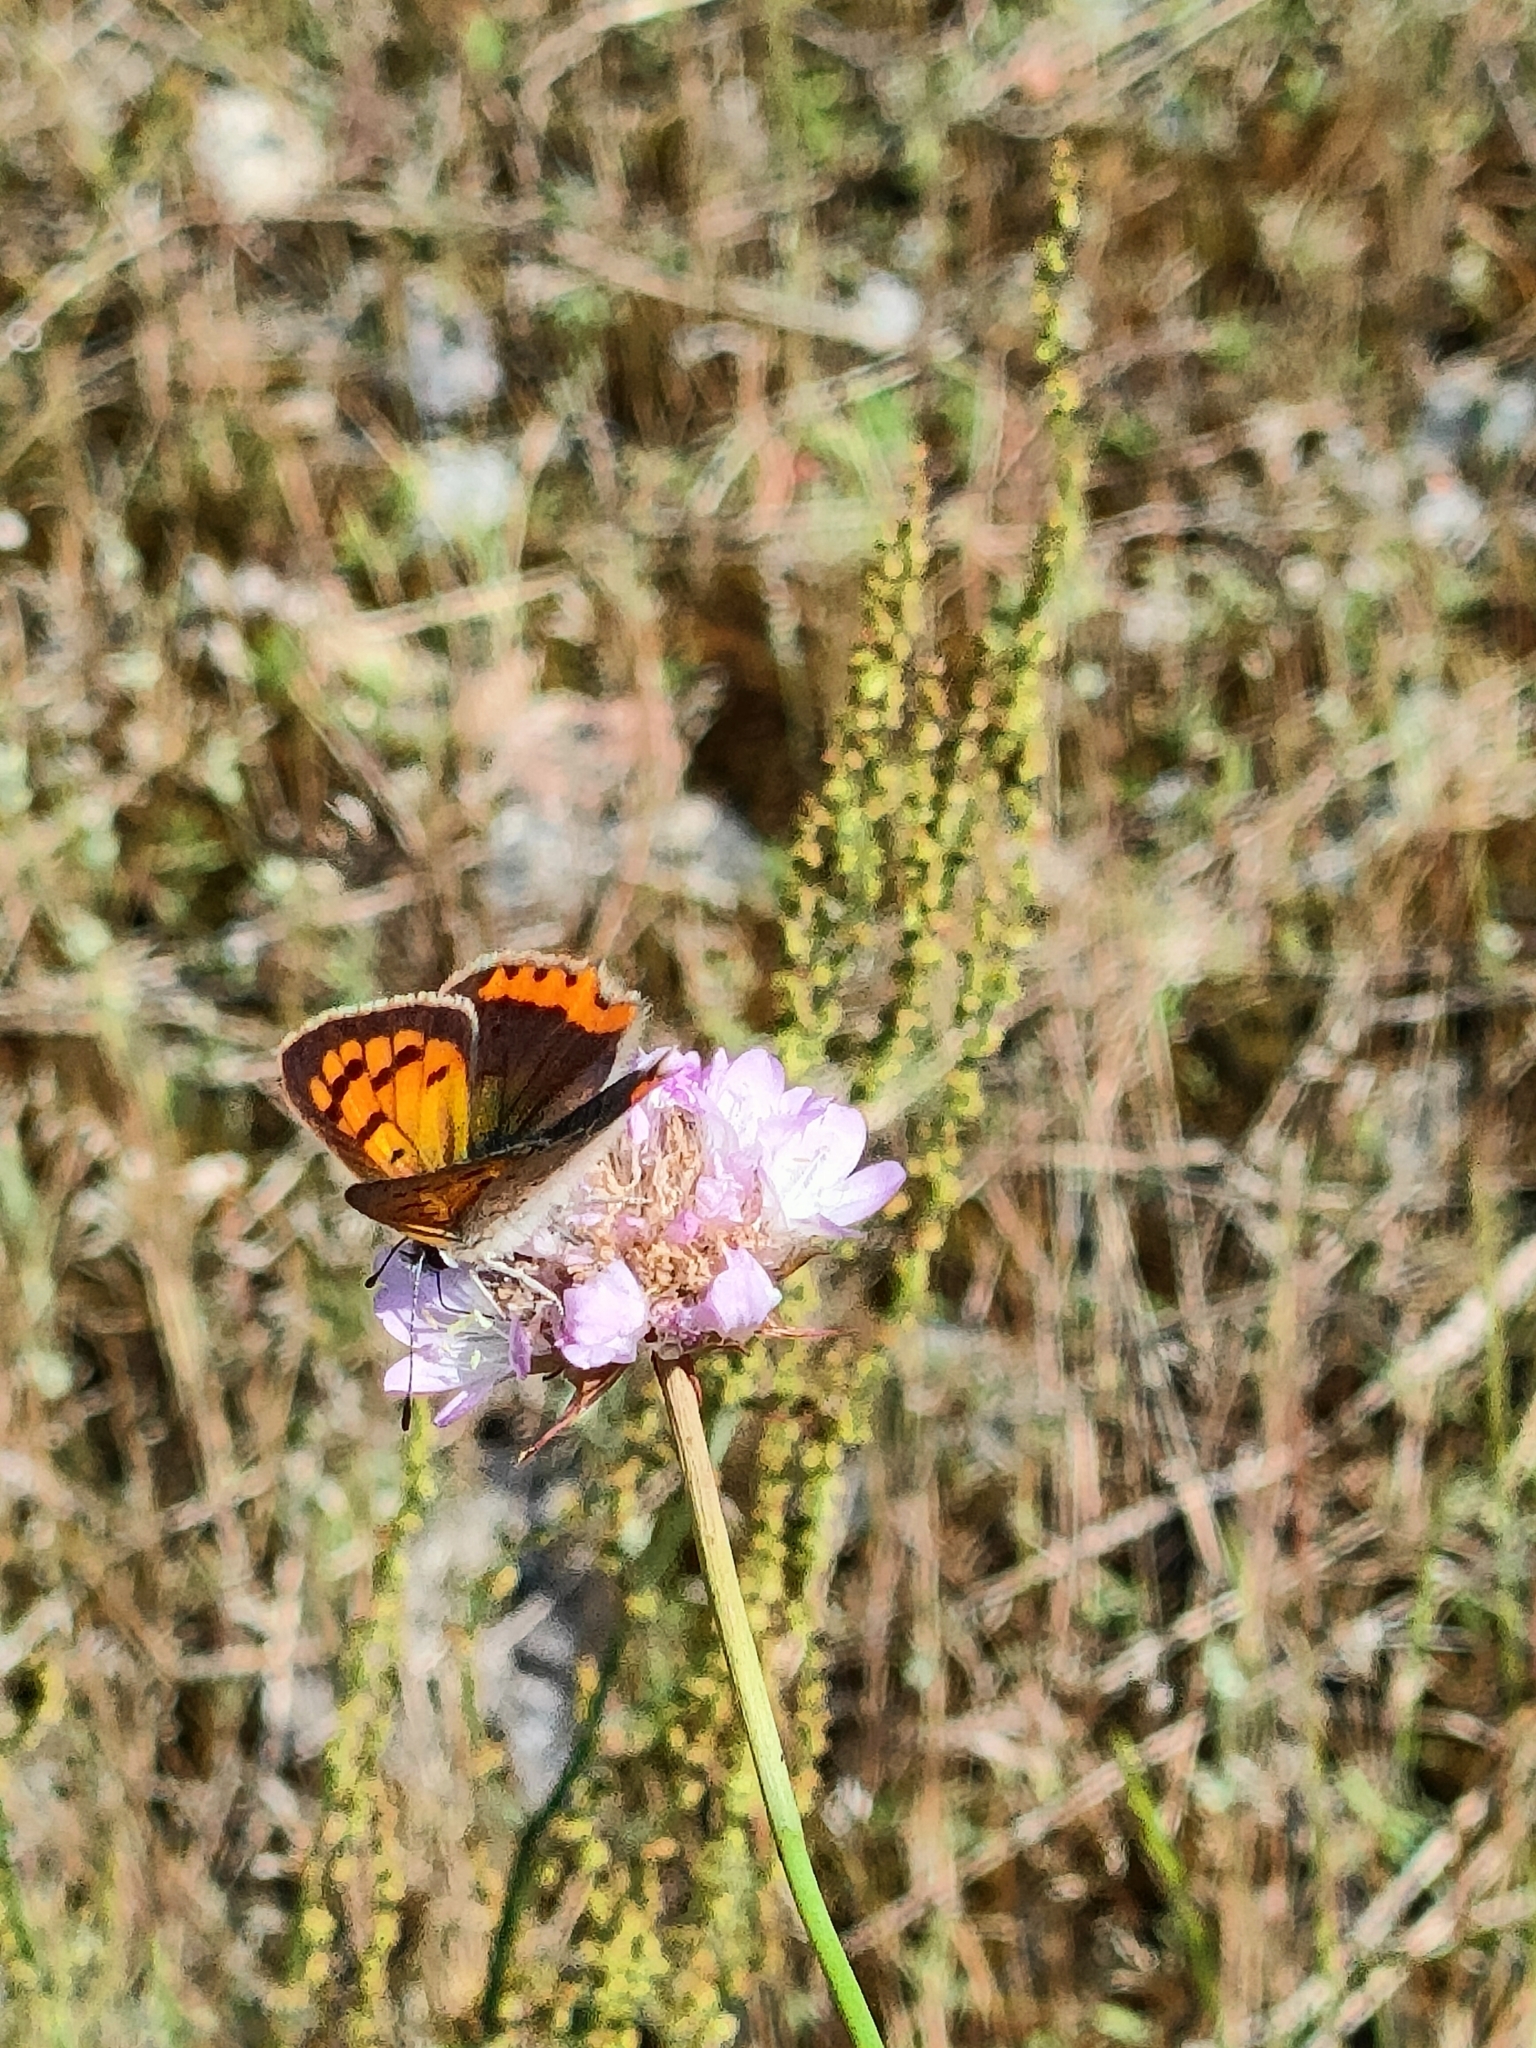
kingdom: Animalia
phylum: Arthropoda
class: Insecta
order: Lepidoptera
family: Lycaenidae
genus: Lycaena
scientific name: Lycaena phlaeas
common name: Small copper
